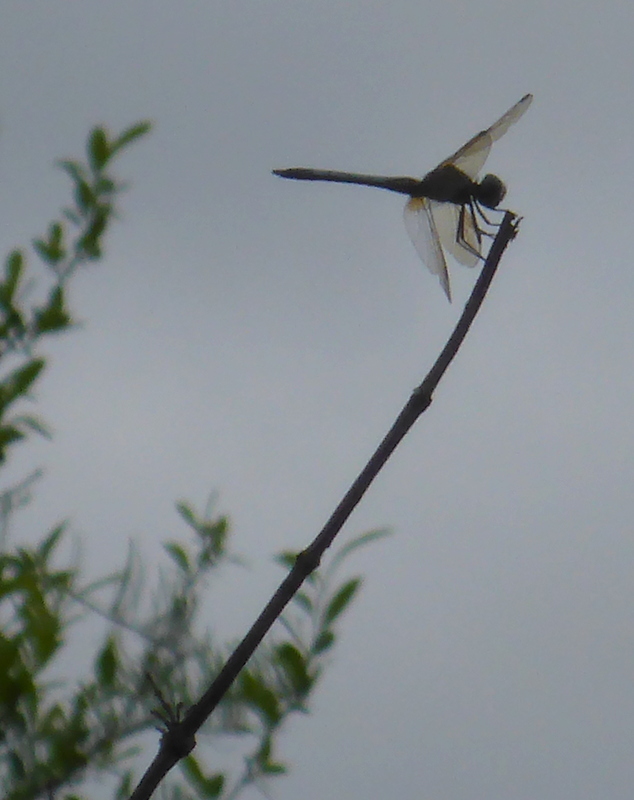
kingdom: Animalia
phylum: Arthropoda
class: Insecta
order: Odonata
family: Libellulidae
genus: Pachydiplax
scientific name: Pachydiplax longipennis
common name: Blue dasher
